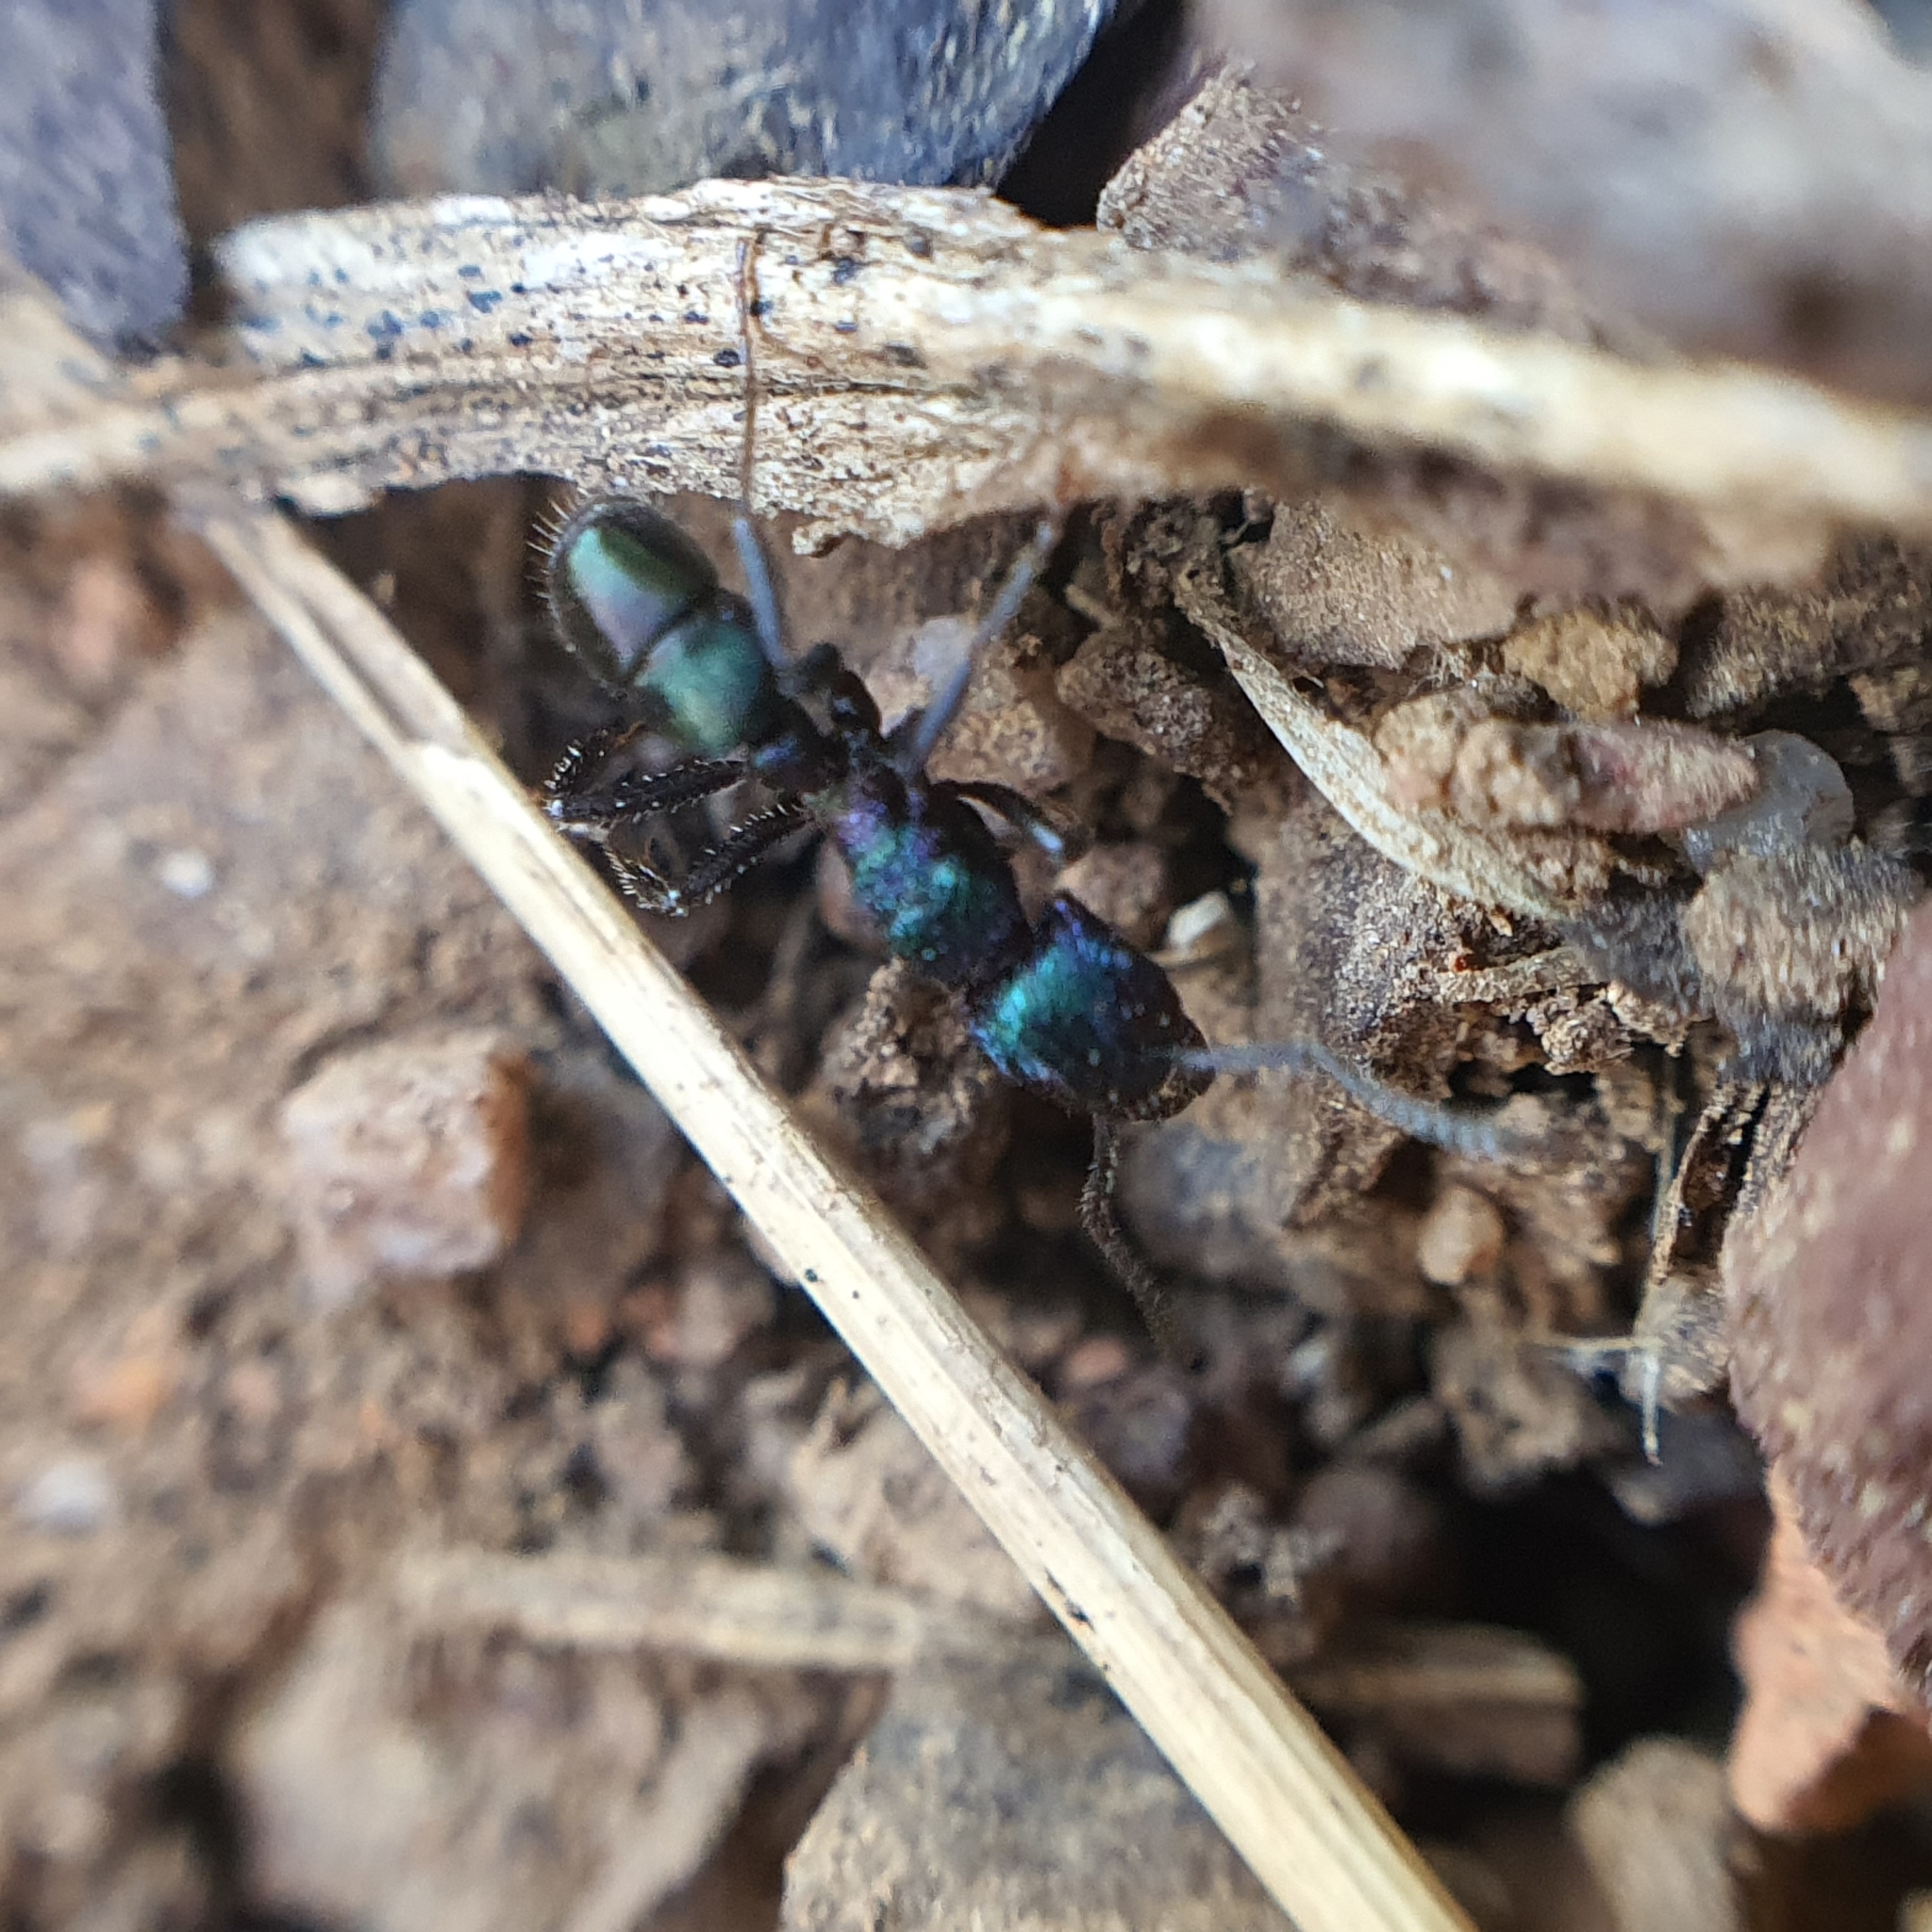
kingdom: Animalia
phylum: Arthropoda
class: Insecta
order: Hymenoptera
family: Formicidae
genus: Rhytidoponera
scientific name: Rhytidoponera metallica
